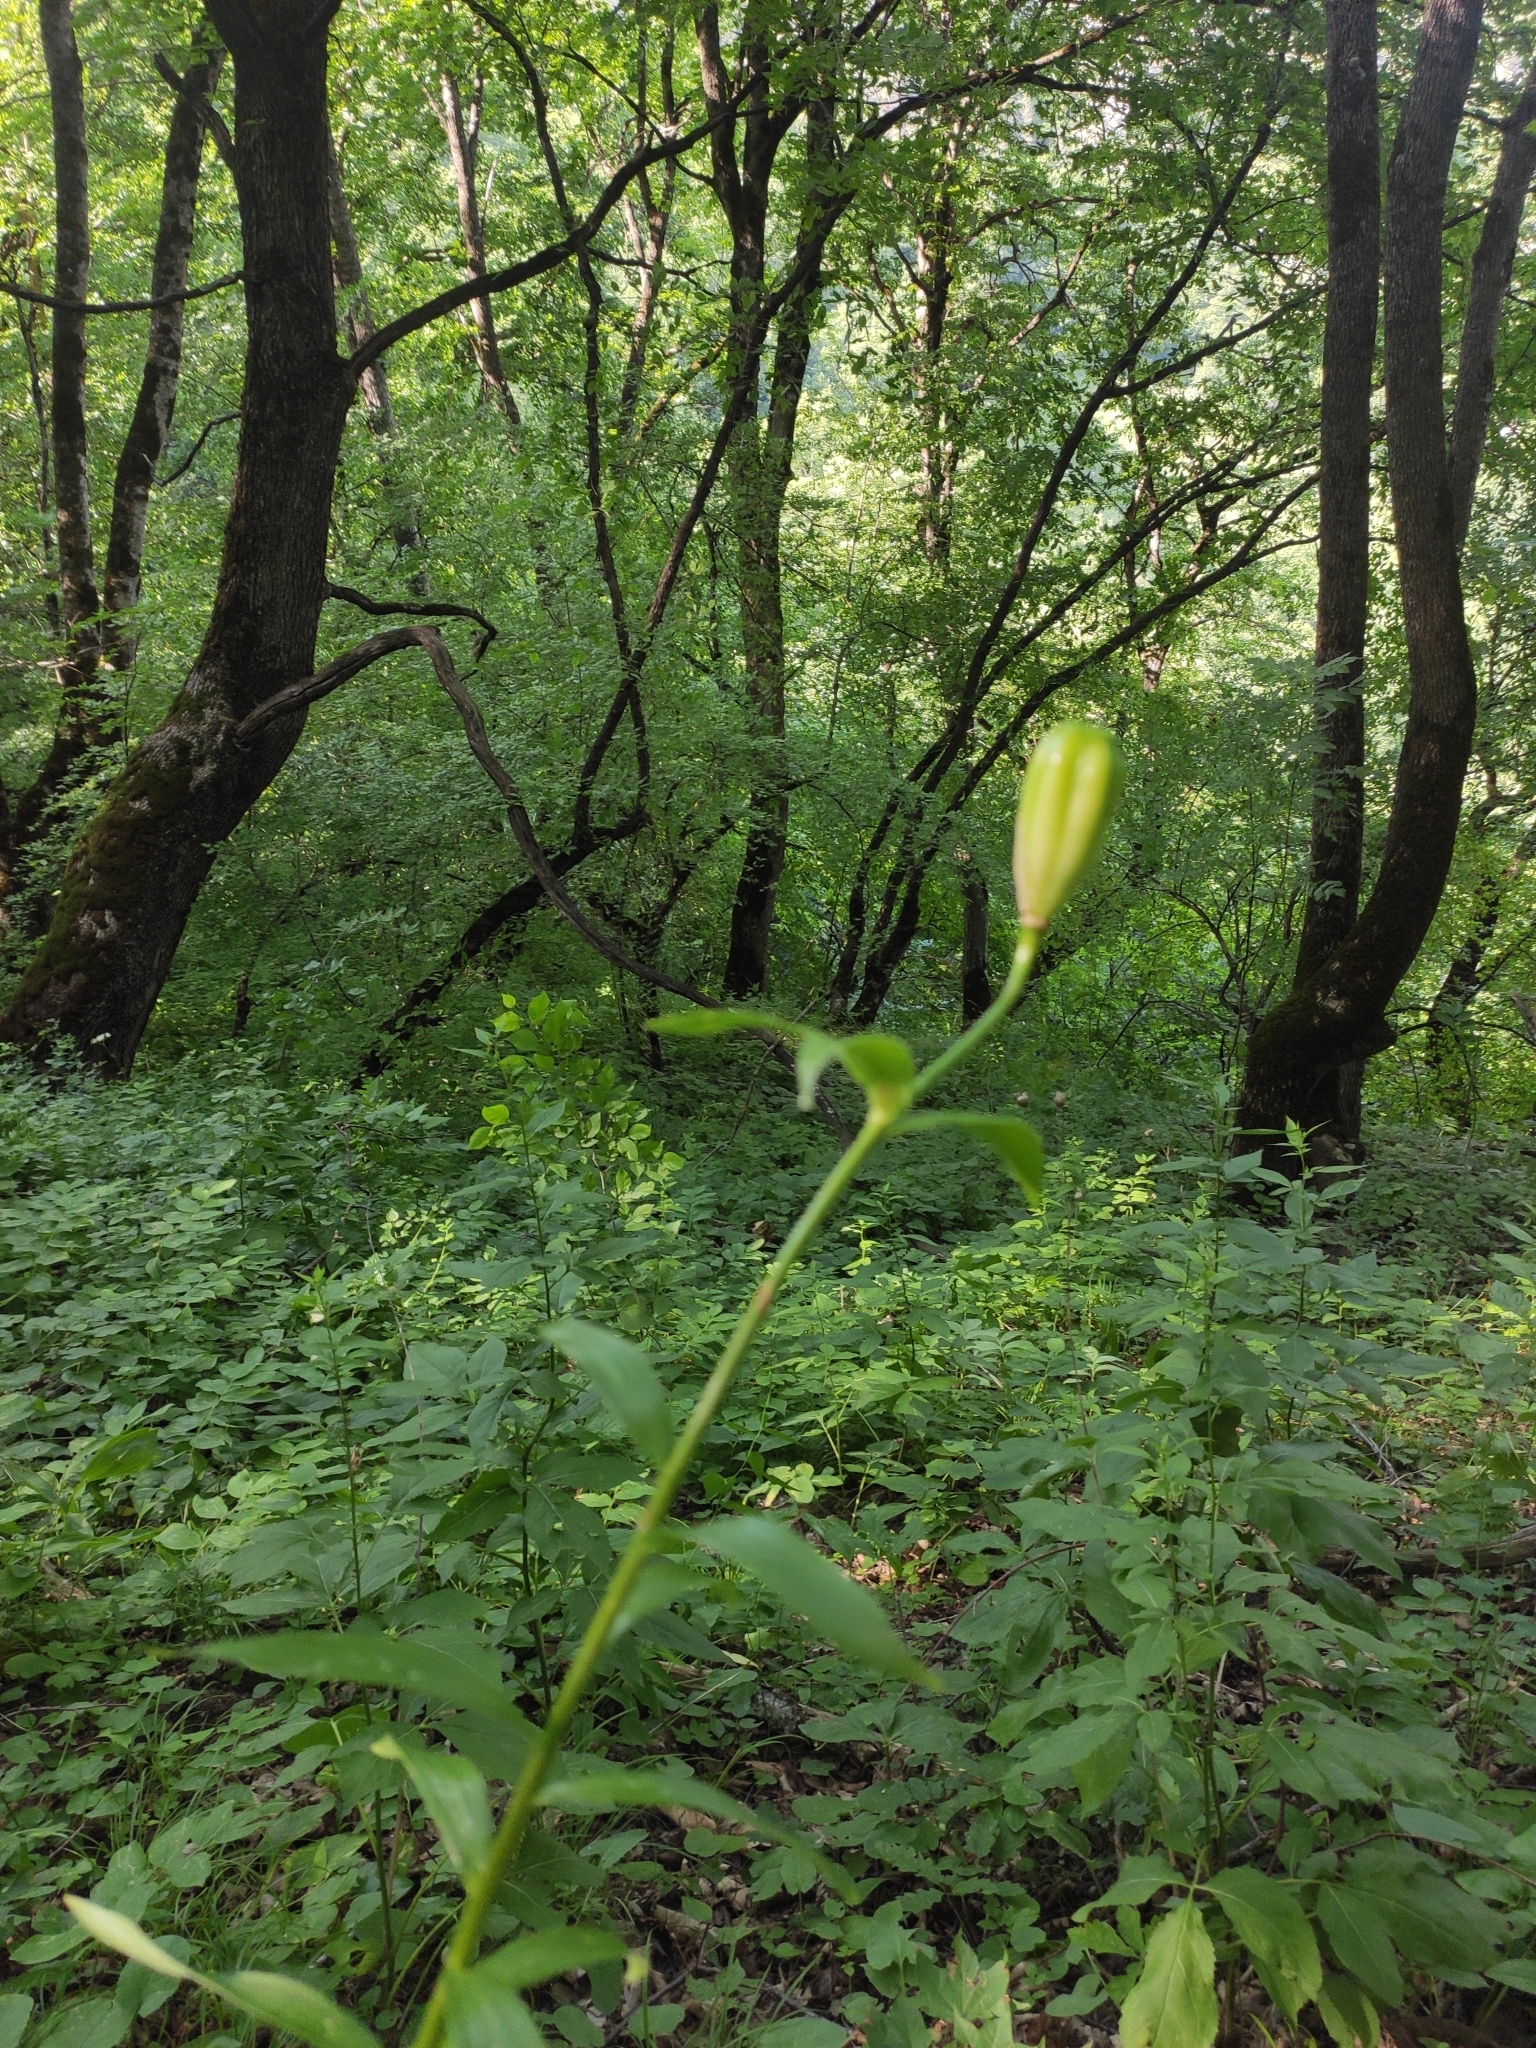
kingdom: Plantae
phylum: Tracheophyta
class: Liliopsida
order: Liliales
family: Liliaceae
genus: Lilium
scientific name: Lilium monadelphum
